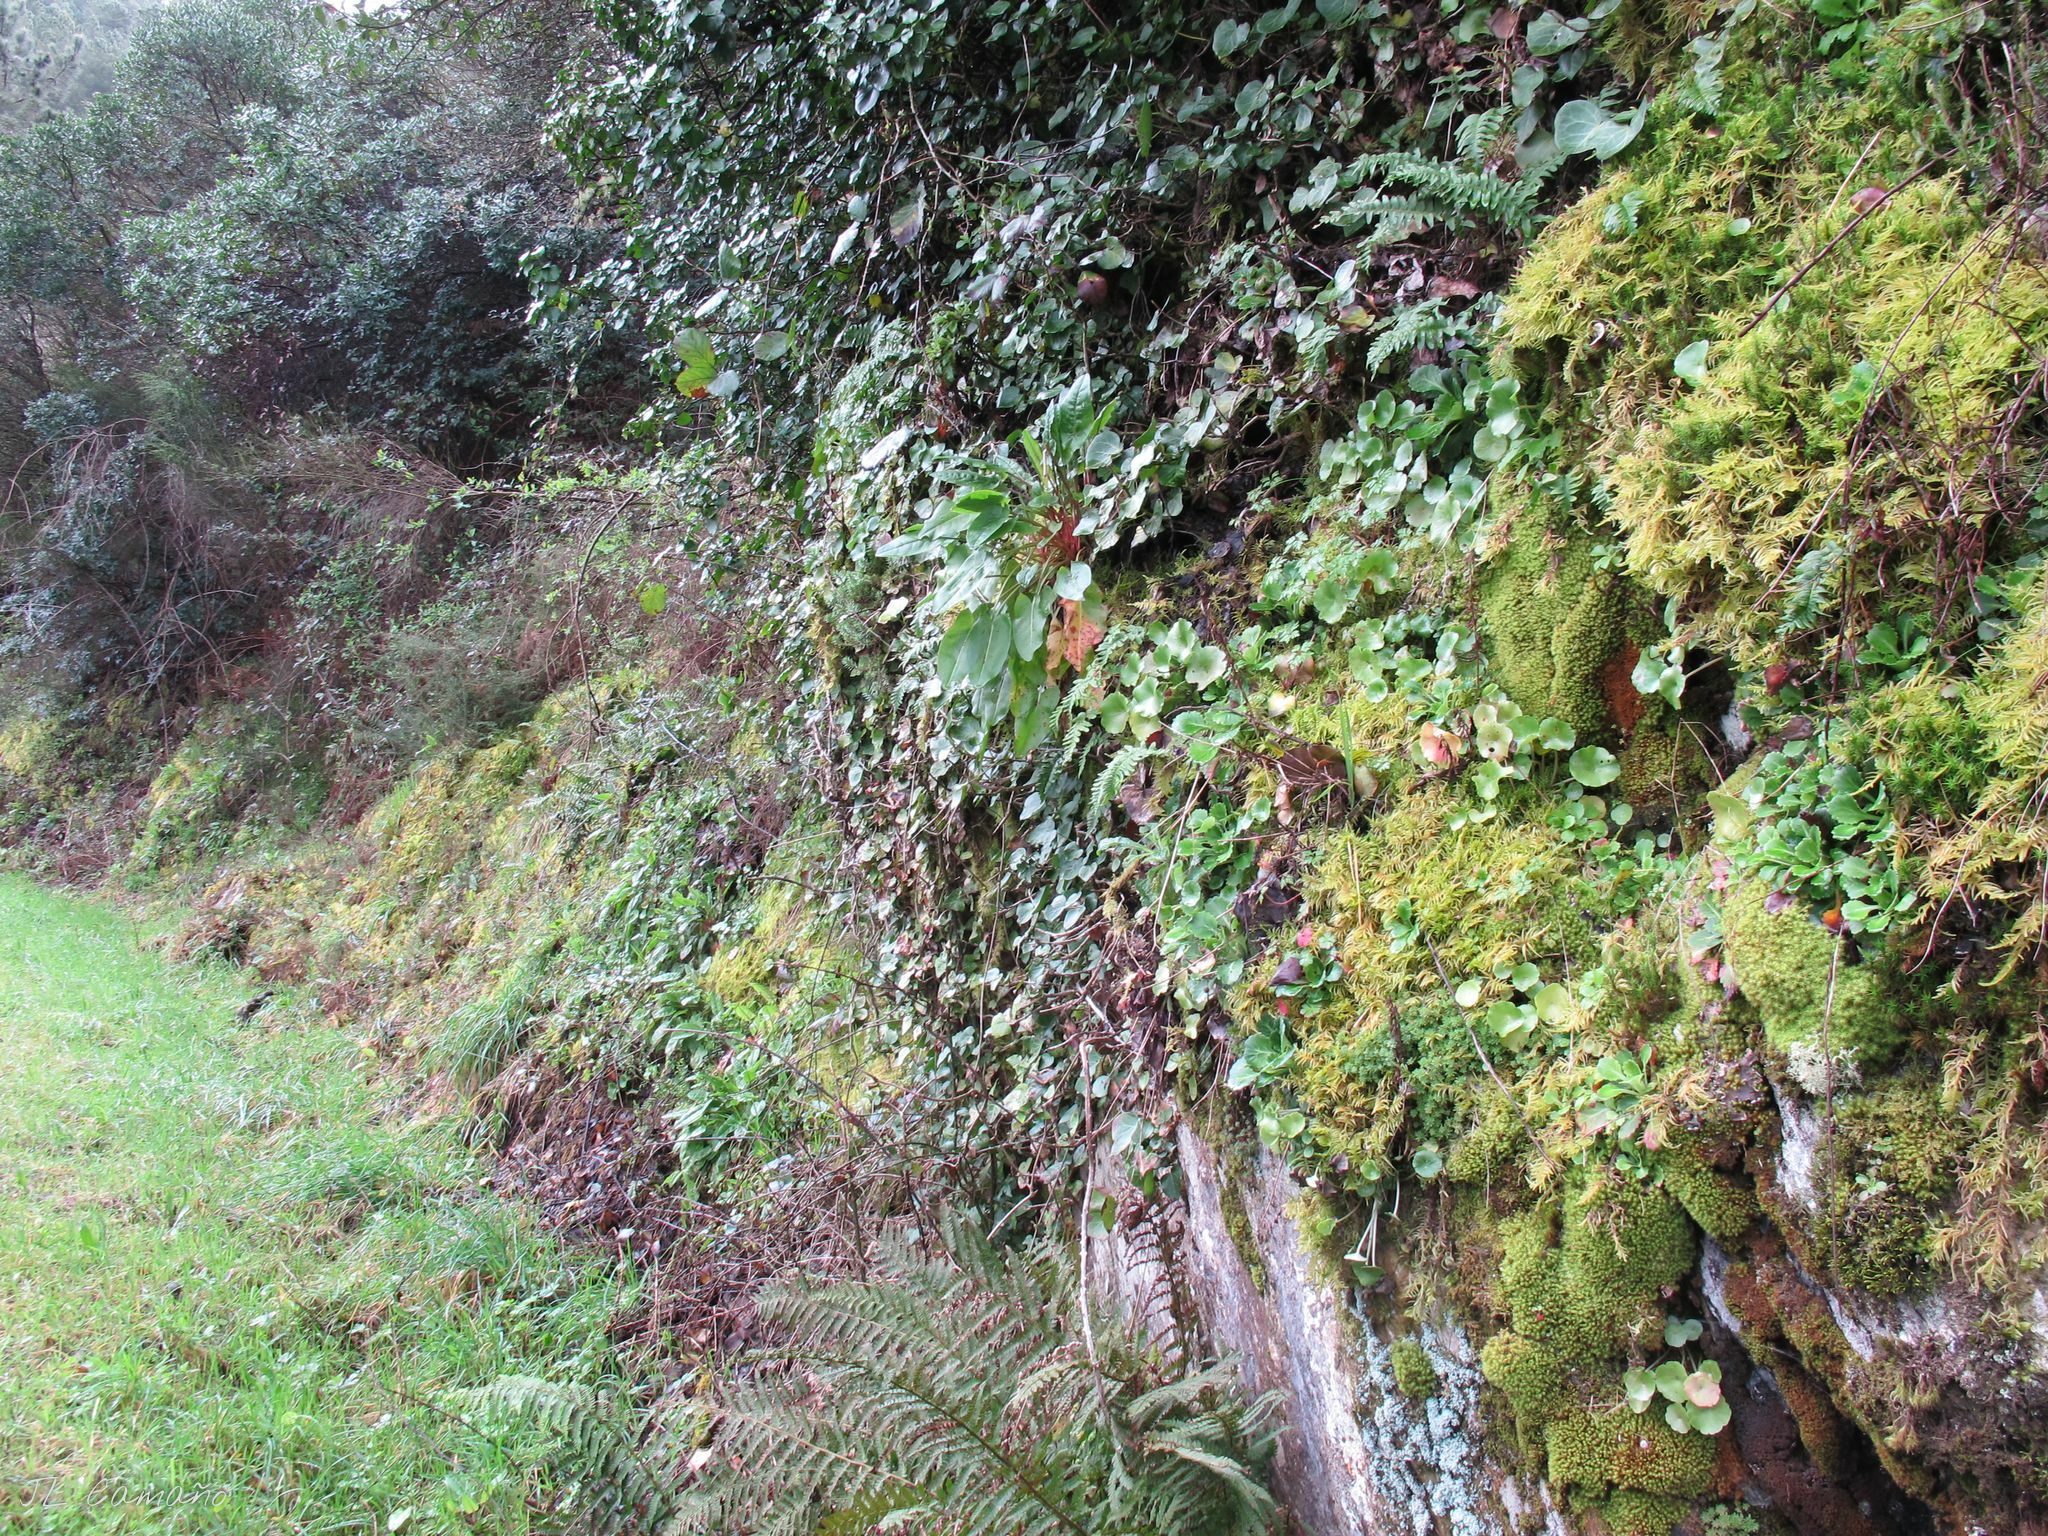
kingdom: Plantae
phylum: Marchantiophyta
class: Jungermanniopsida
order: Jungermanniales
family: Saccogynaceae
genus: Saccogyna
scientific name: Saccogyna viticulosa
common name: Straggling pouchwort
